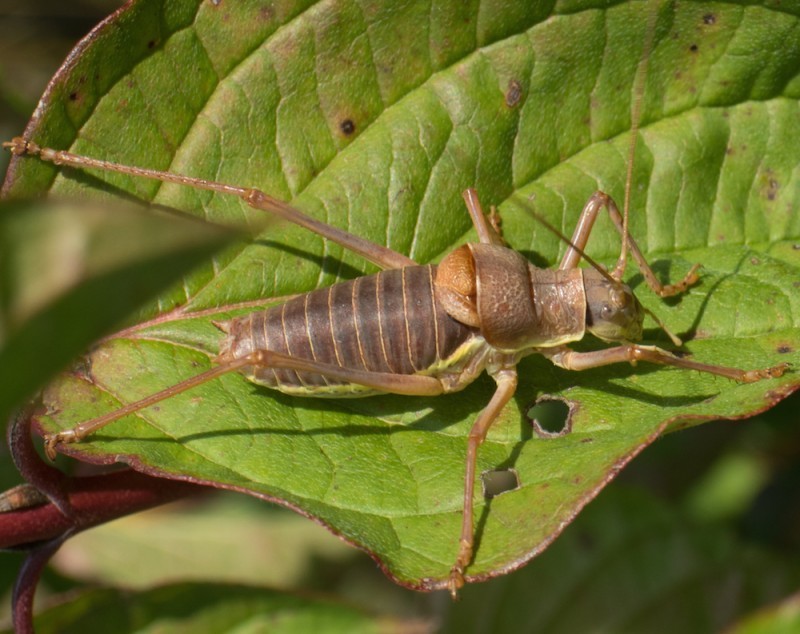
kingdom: Animalia
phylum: Arthropoda
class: Insecta
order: Orthoptera
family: Tettigoniidae
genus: Ephippiger
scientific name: Ephippiger ephippiger
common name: Eastern saddle bush-cricket
